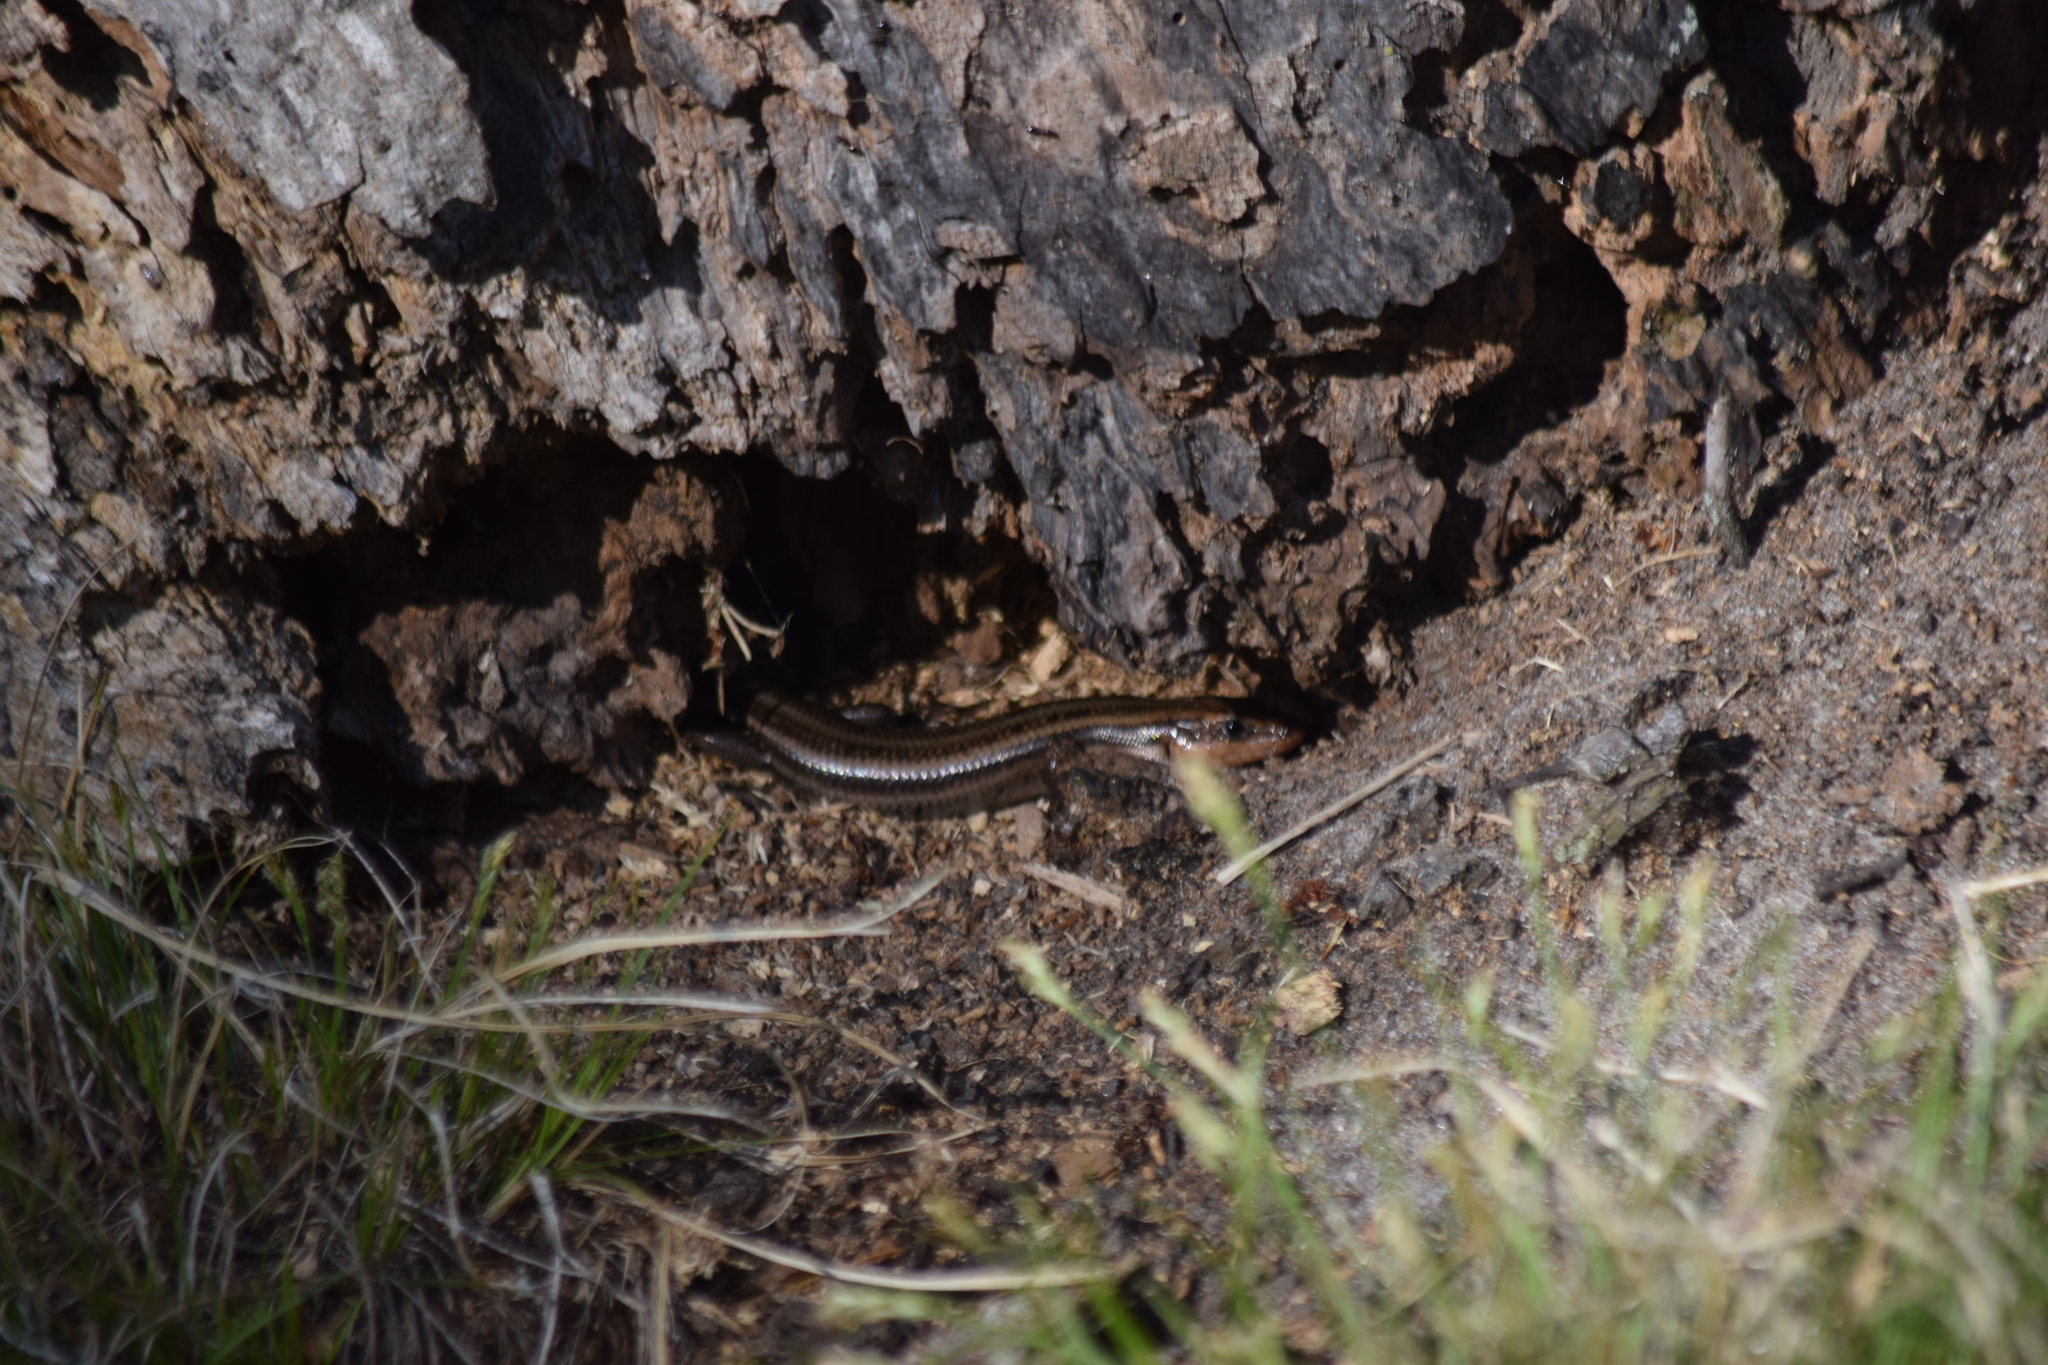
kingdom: Animalia
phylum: Chordata
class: Squamata
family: Scincidae
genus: Plestiodon
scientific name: Plestiodon fasciatus
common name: Five-lined skink
